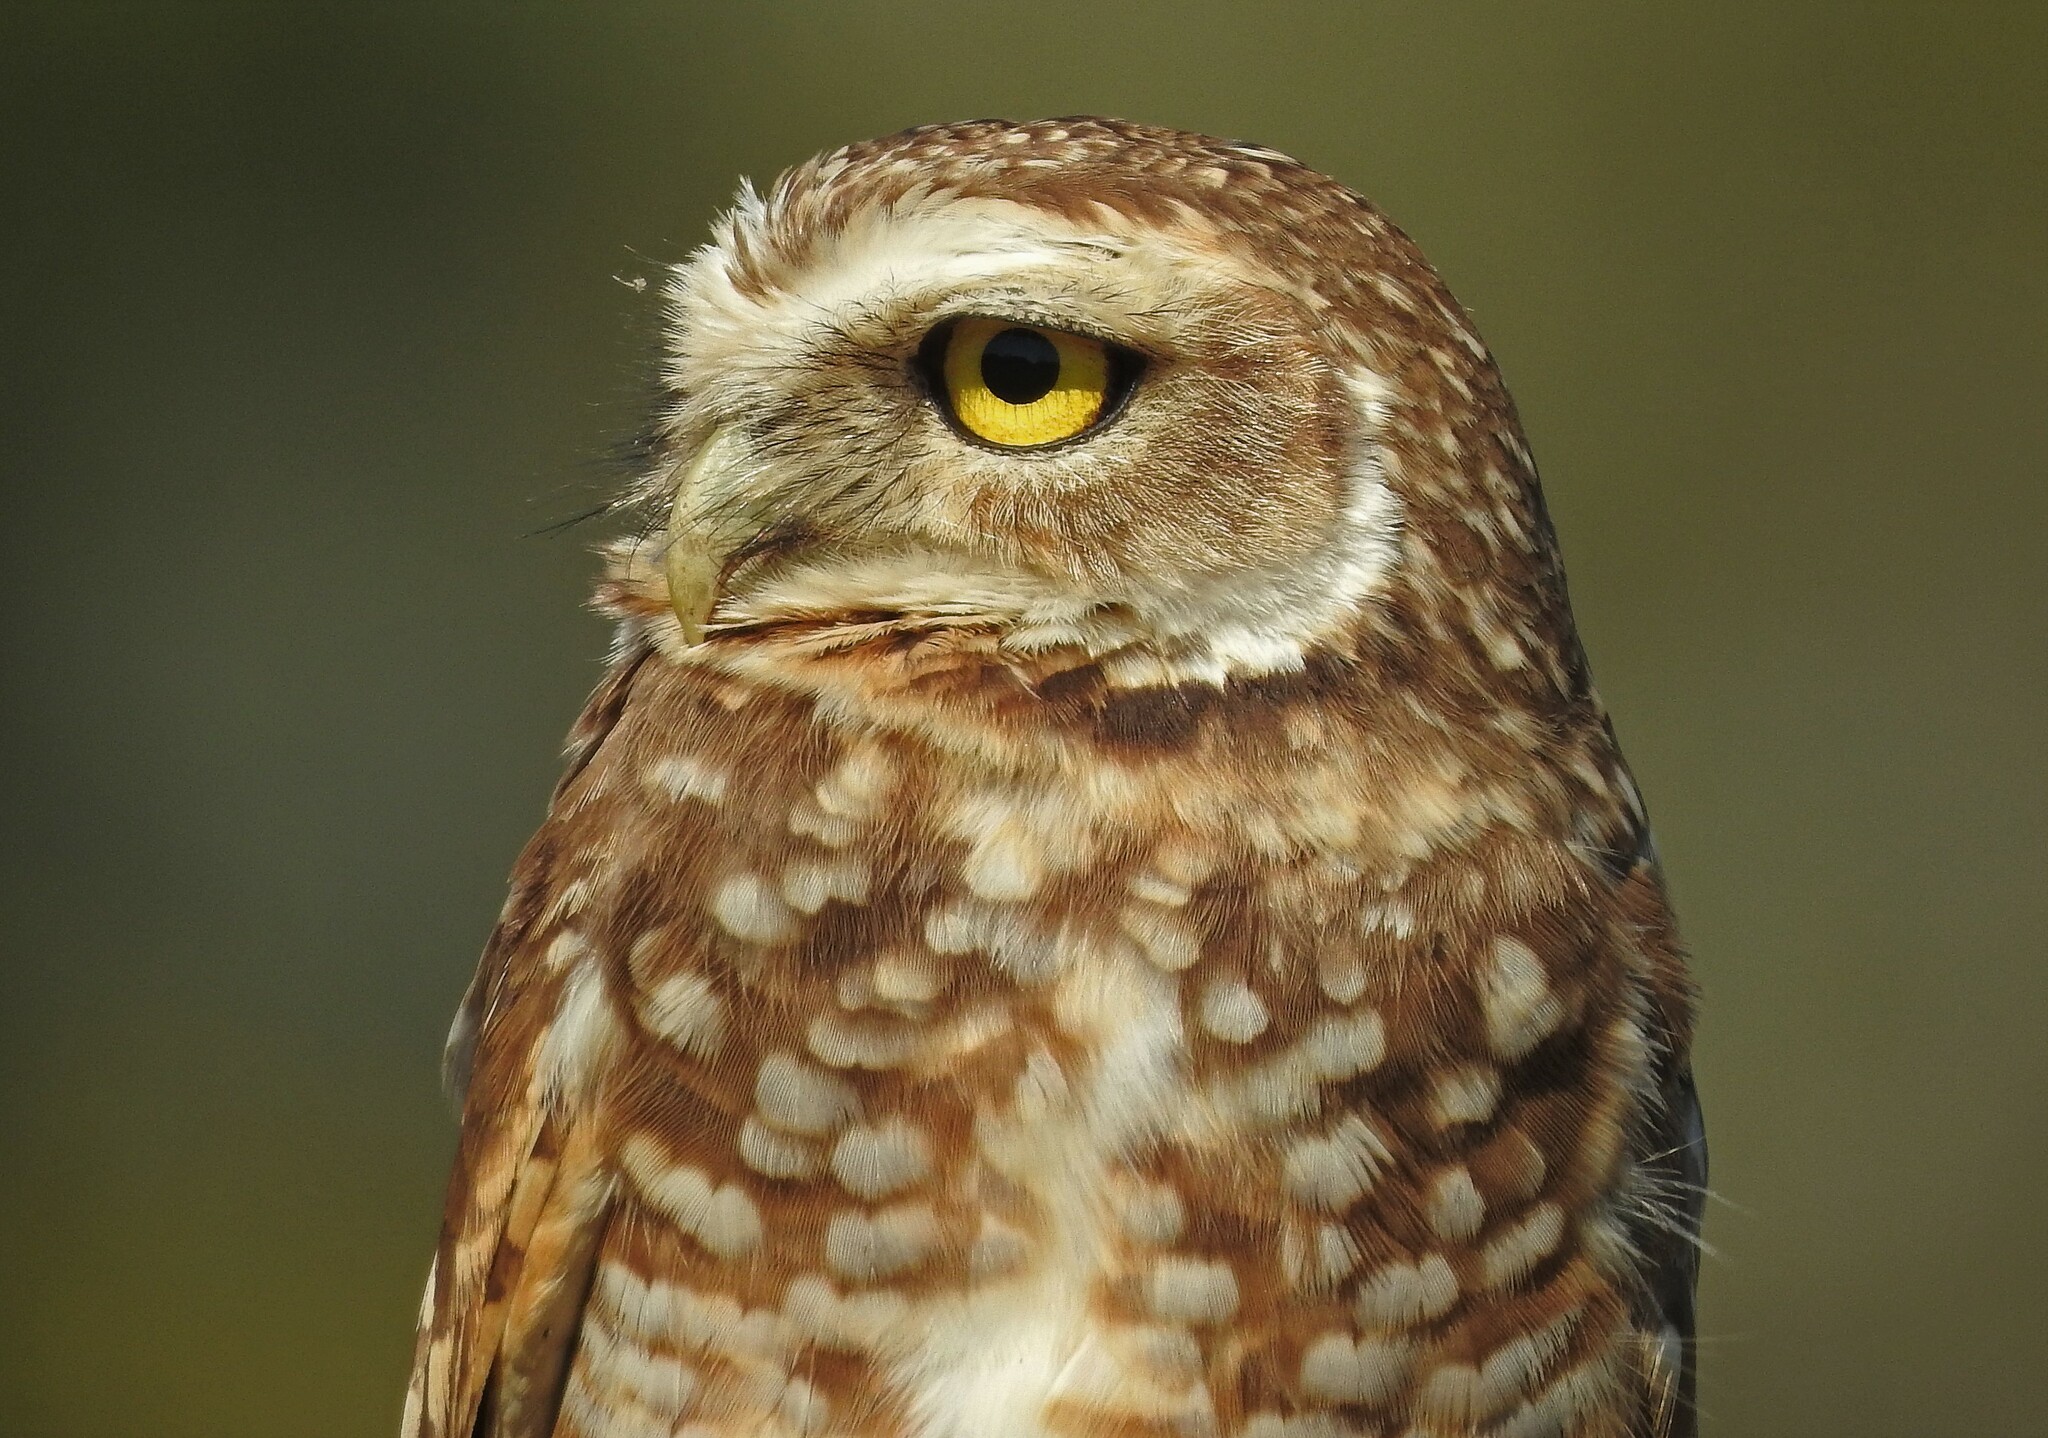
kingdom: Animalia
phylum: Chordata
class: Aves
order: Strigiformes
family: Strigidae
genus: Athene
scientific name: Athene cunicularia
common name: Burrowing owl
